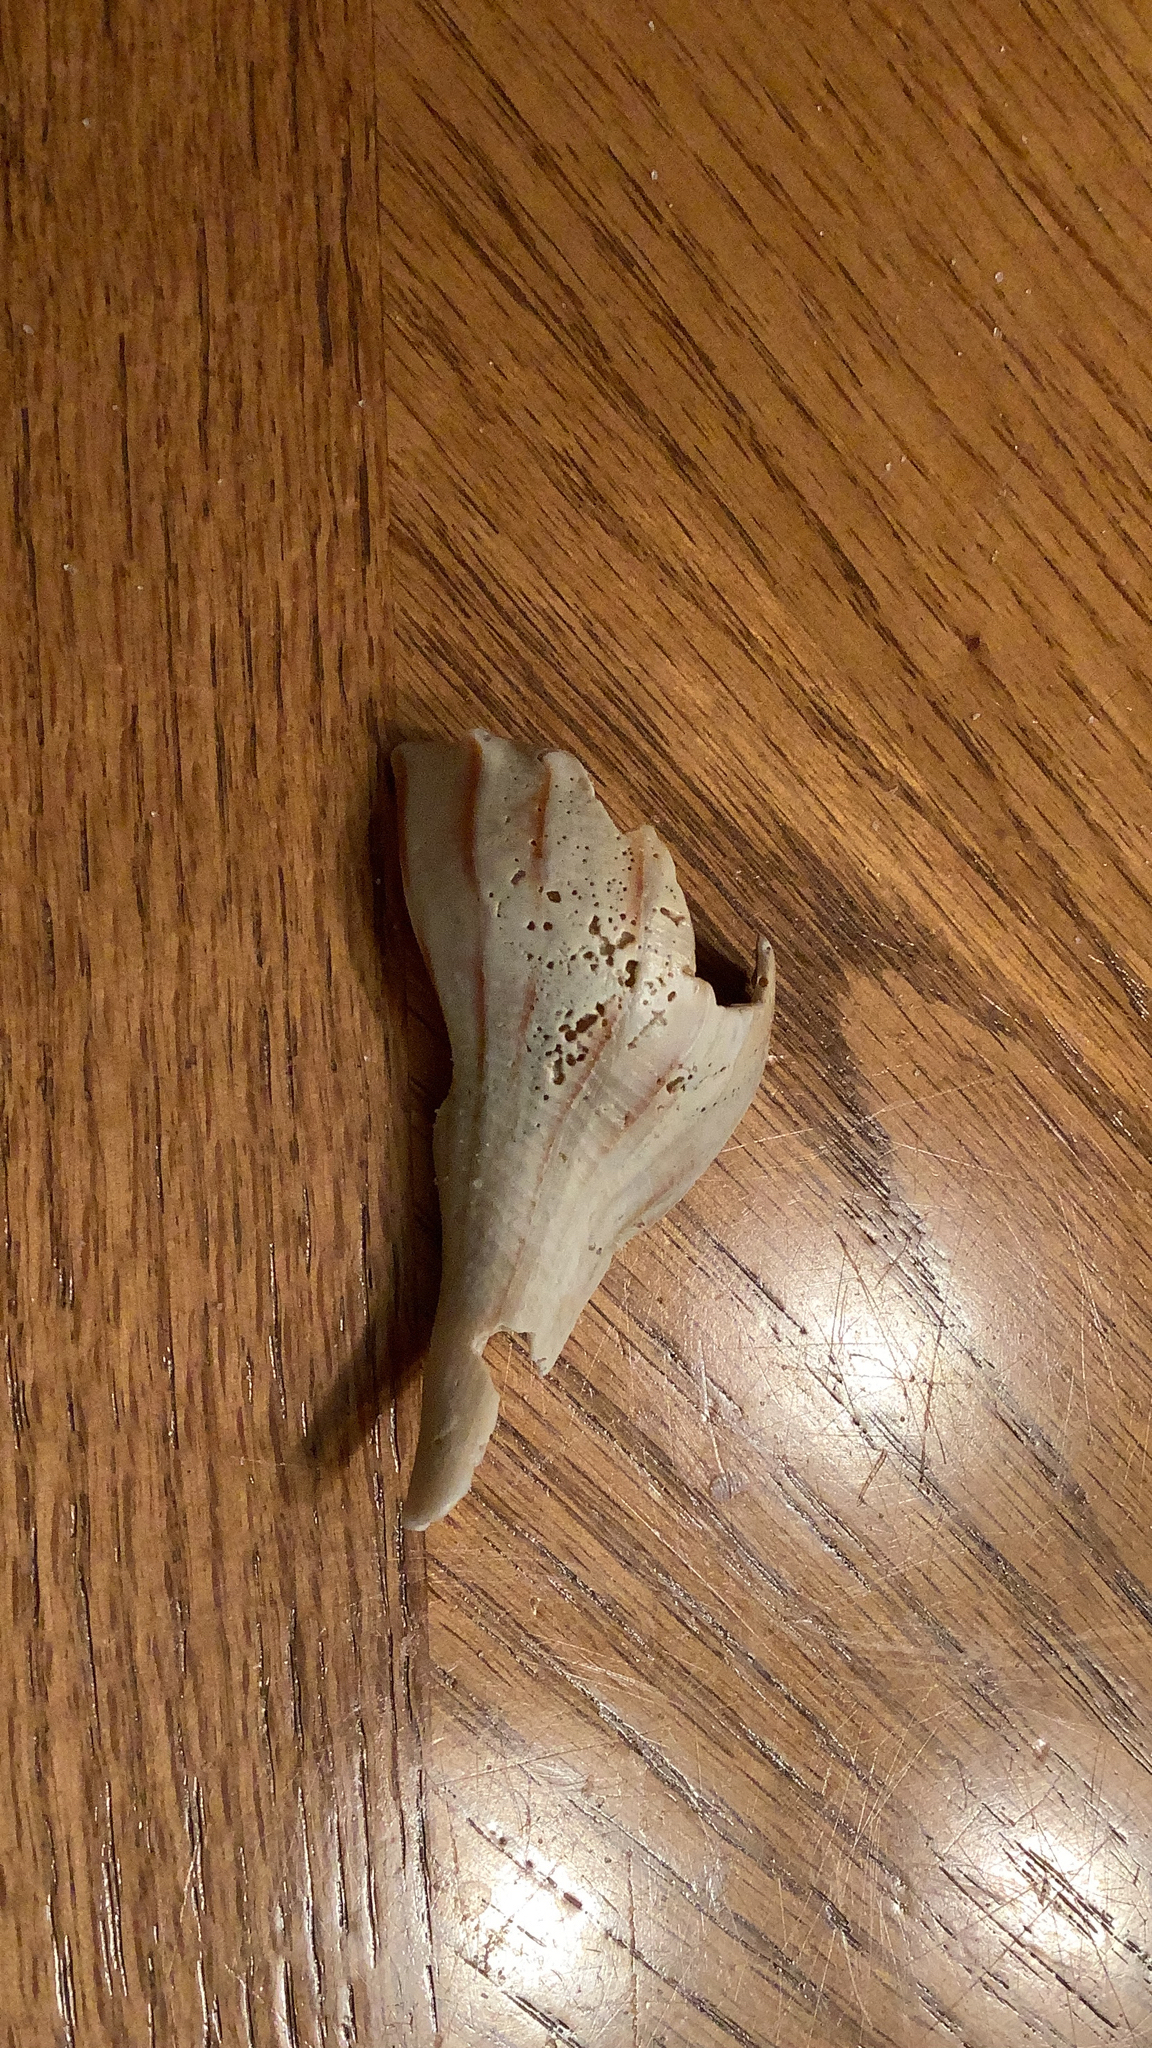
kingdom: Animalia
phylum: Mollusca
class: Gastropoda
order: Neogastropoda
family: Busyconidae
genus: Sinistrofulgur
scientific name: Sinistrofulgur sinistrum
